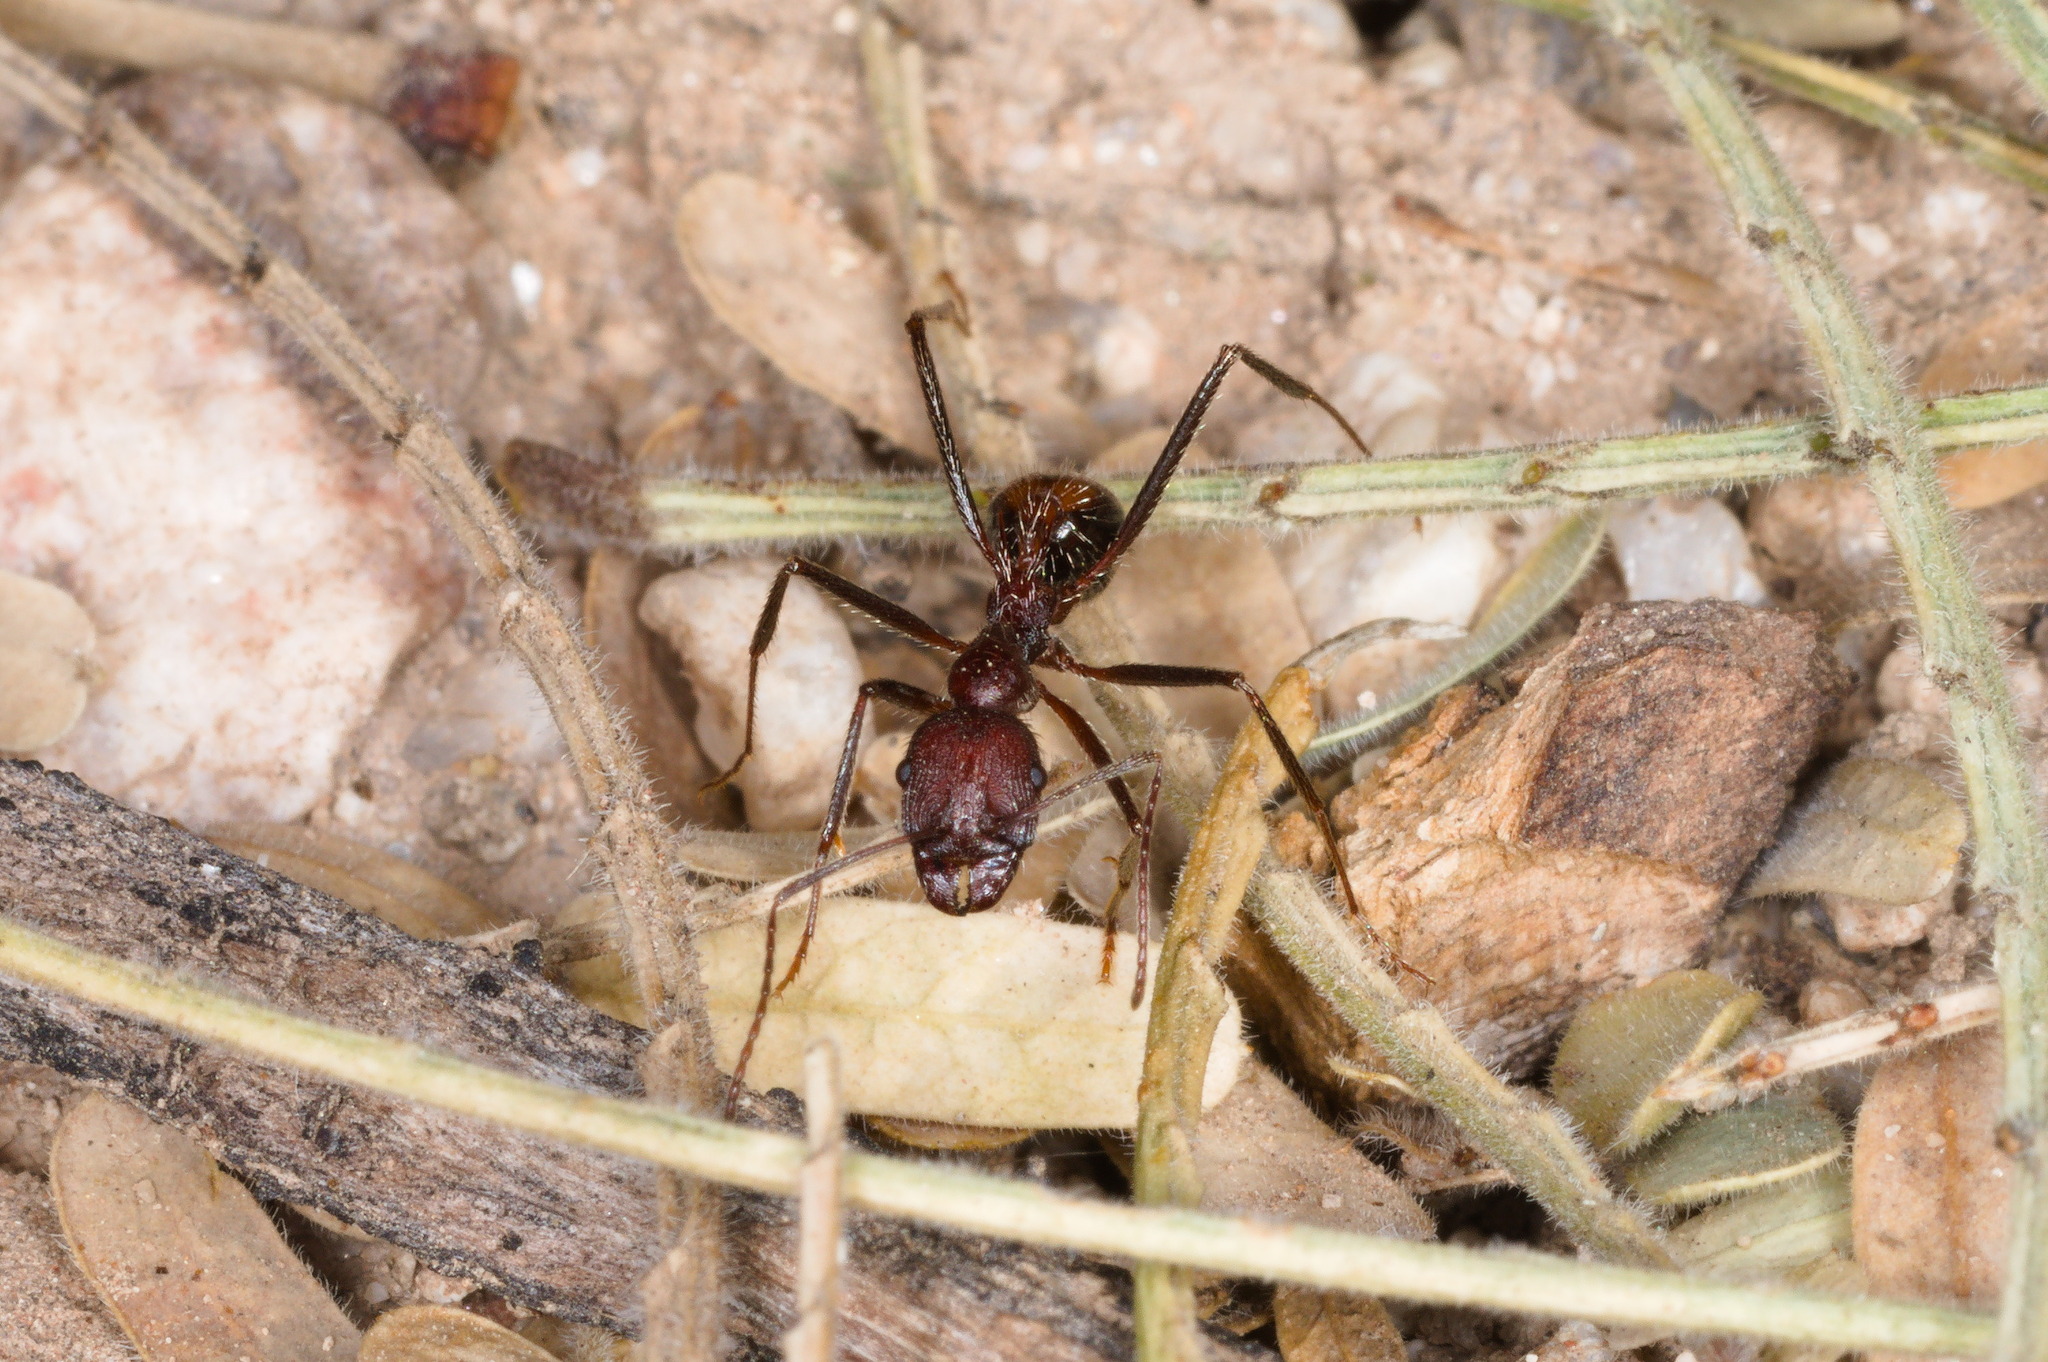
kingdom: Animalia
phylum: Arthropoda
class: Insecta
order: Hymenoptera
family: Formicidae
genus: Novomessor
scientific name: Novomessor albisetosa
